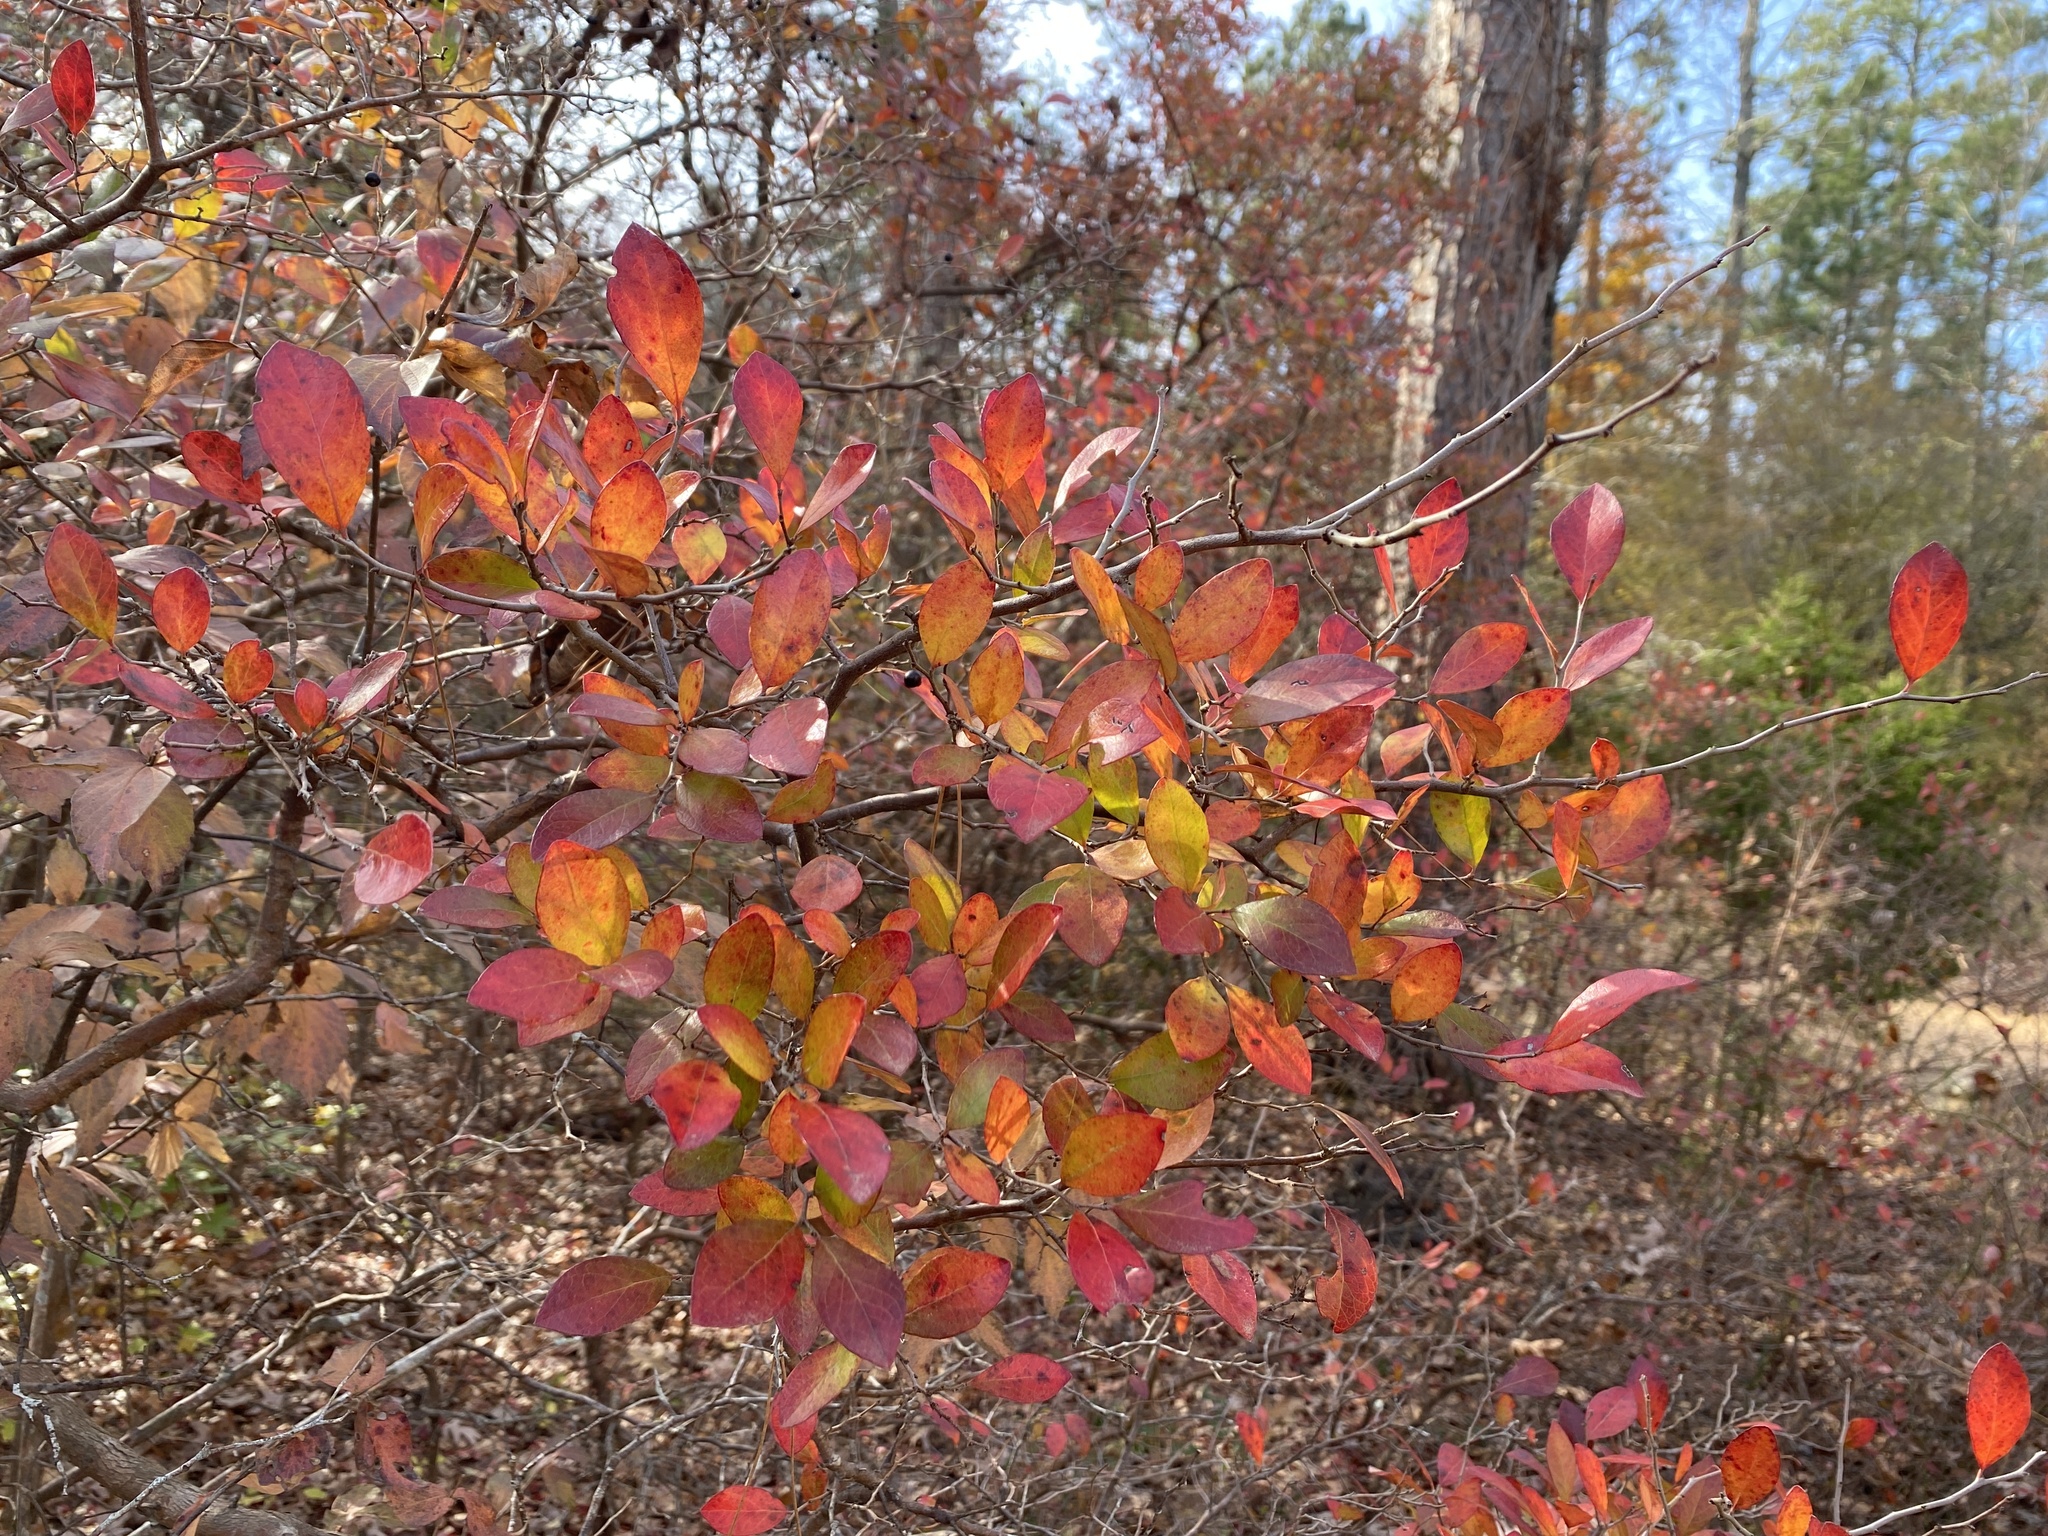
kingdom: Plantae
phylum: Tracheophyta
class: Magnoliopsida
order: Ericales
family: Ericaceae
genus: Vaccinium
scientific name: Vaccinium arboreum
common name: Farkleberry
